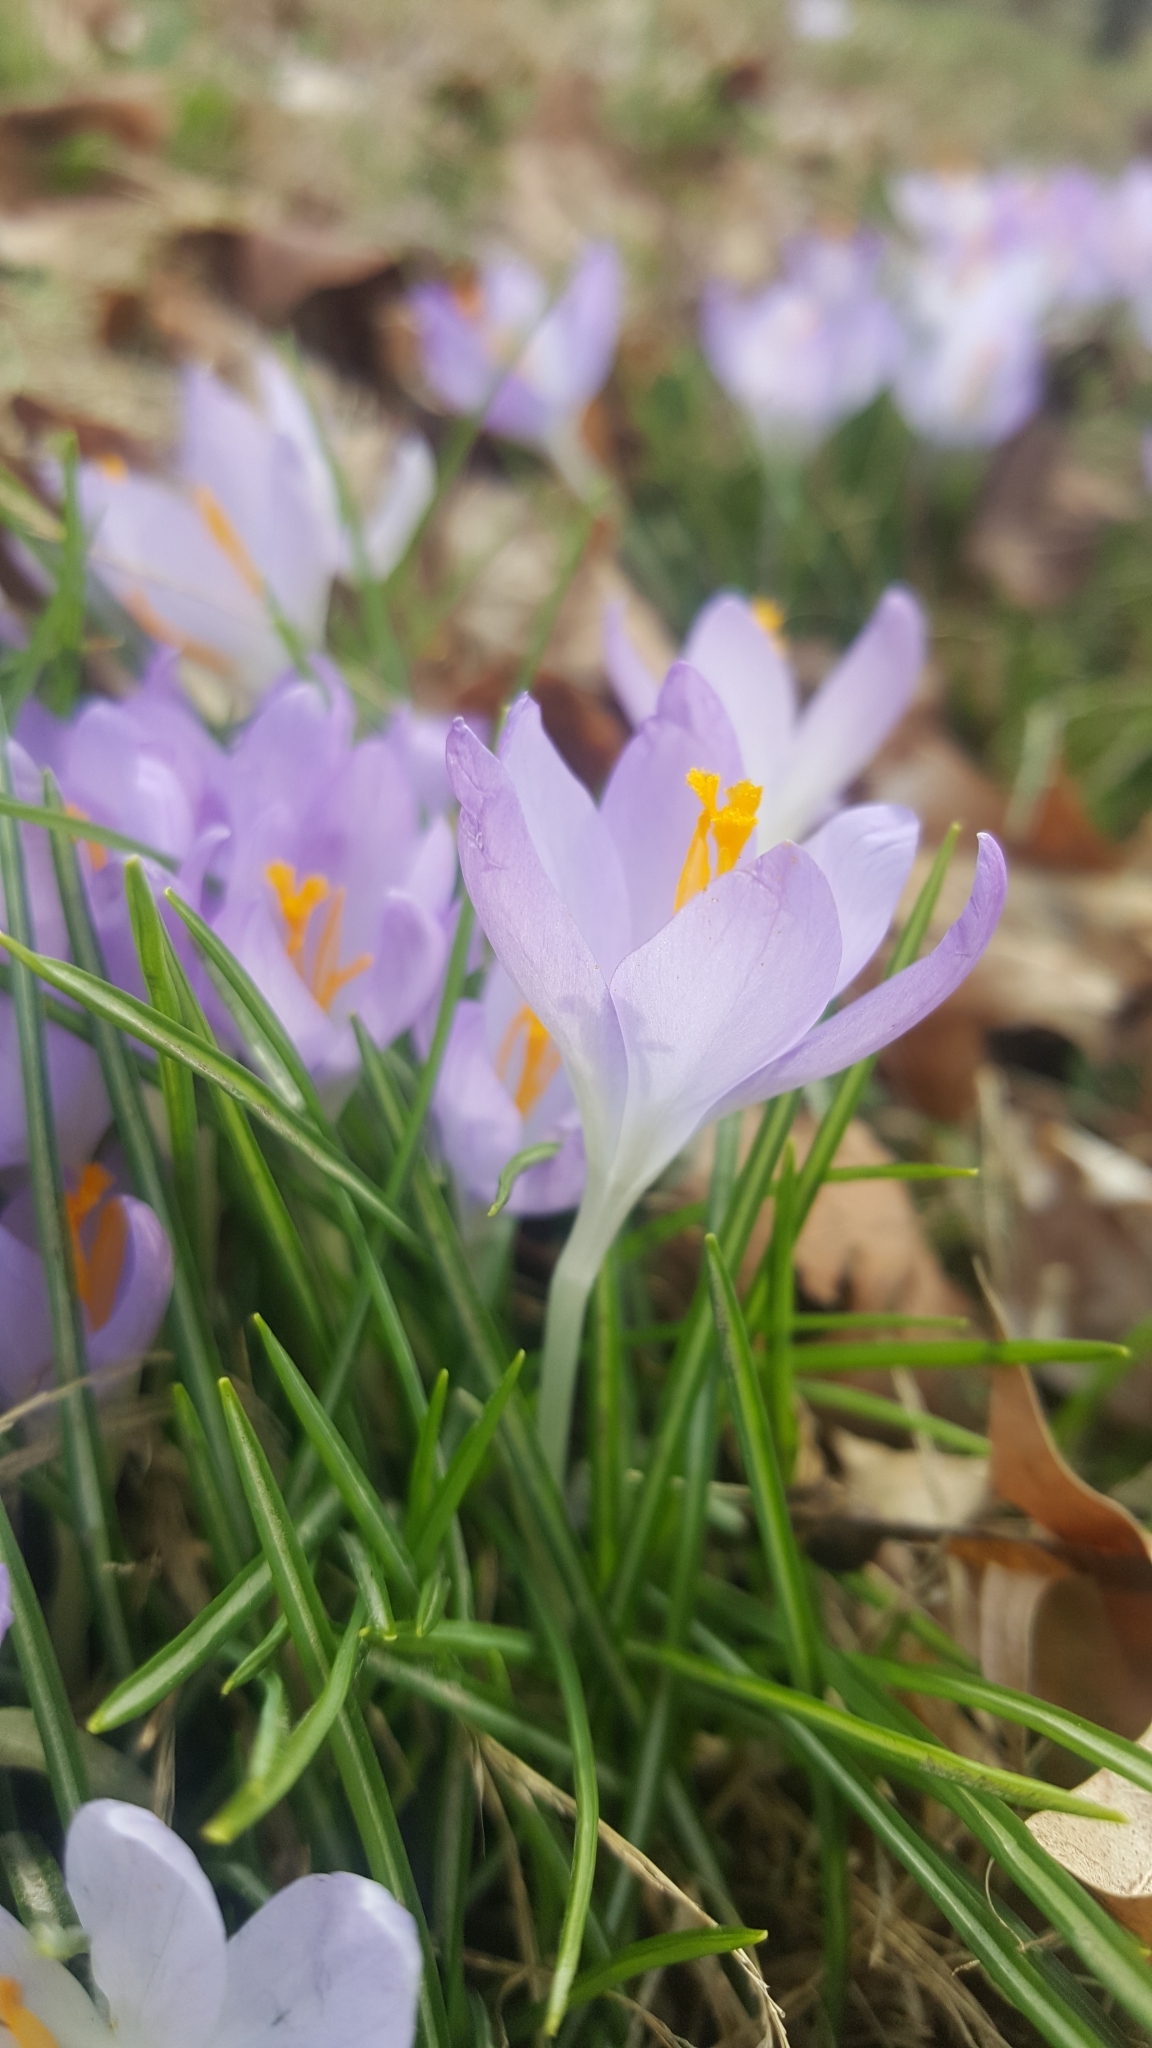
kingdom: Plantae
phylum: Tracheophyta
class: Liliopsida
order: Asparagales
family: Iridaceae
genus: Crocus
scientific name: Crocus tommasinianus
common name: Early crocus
